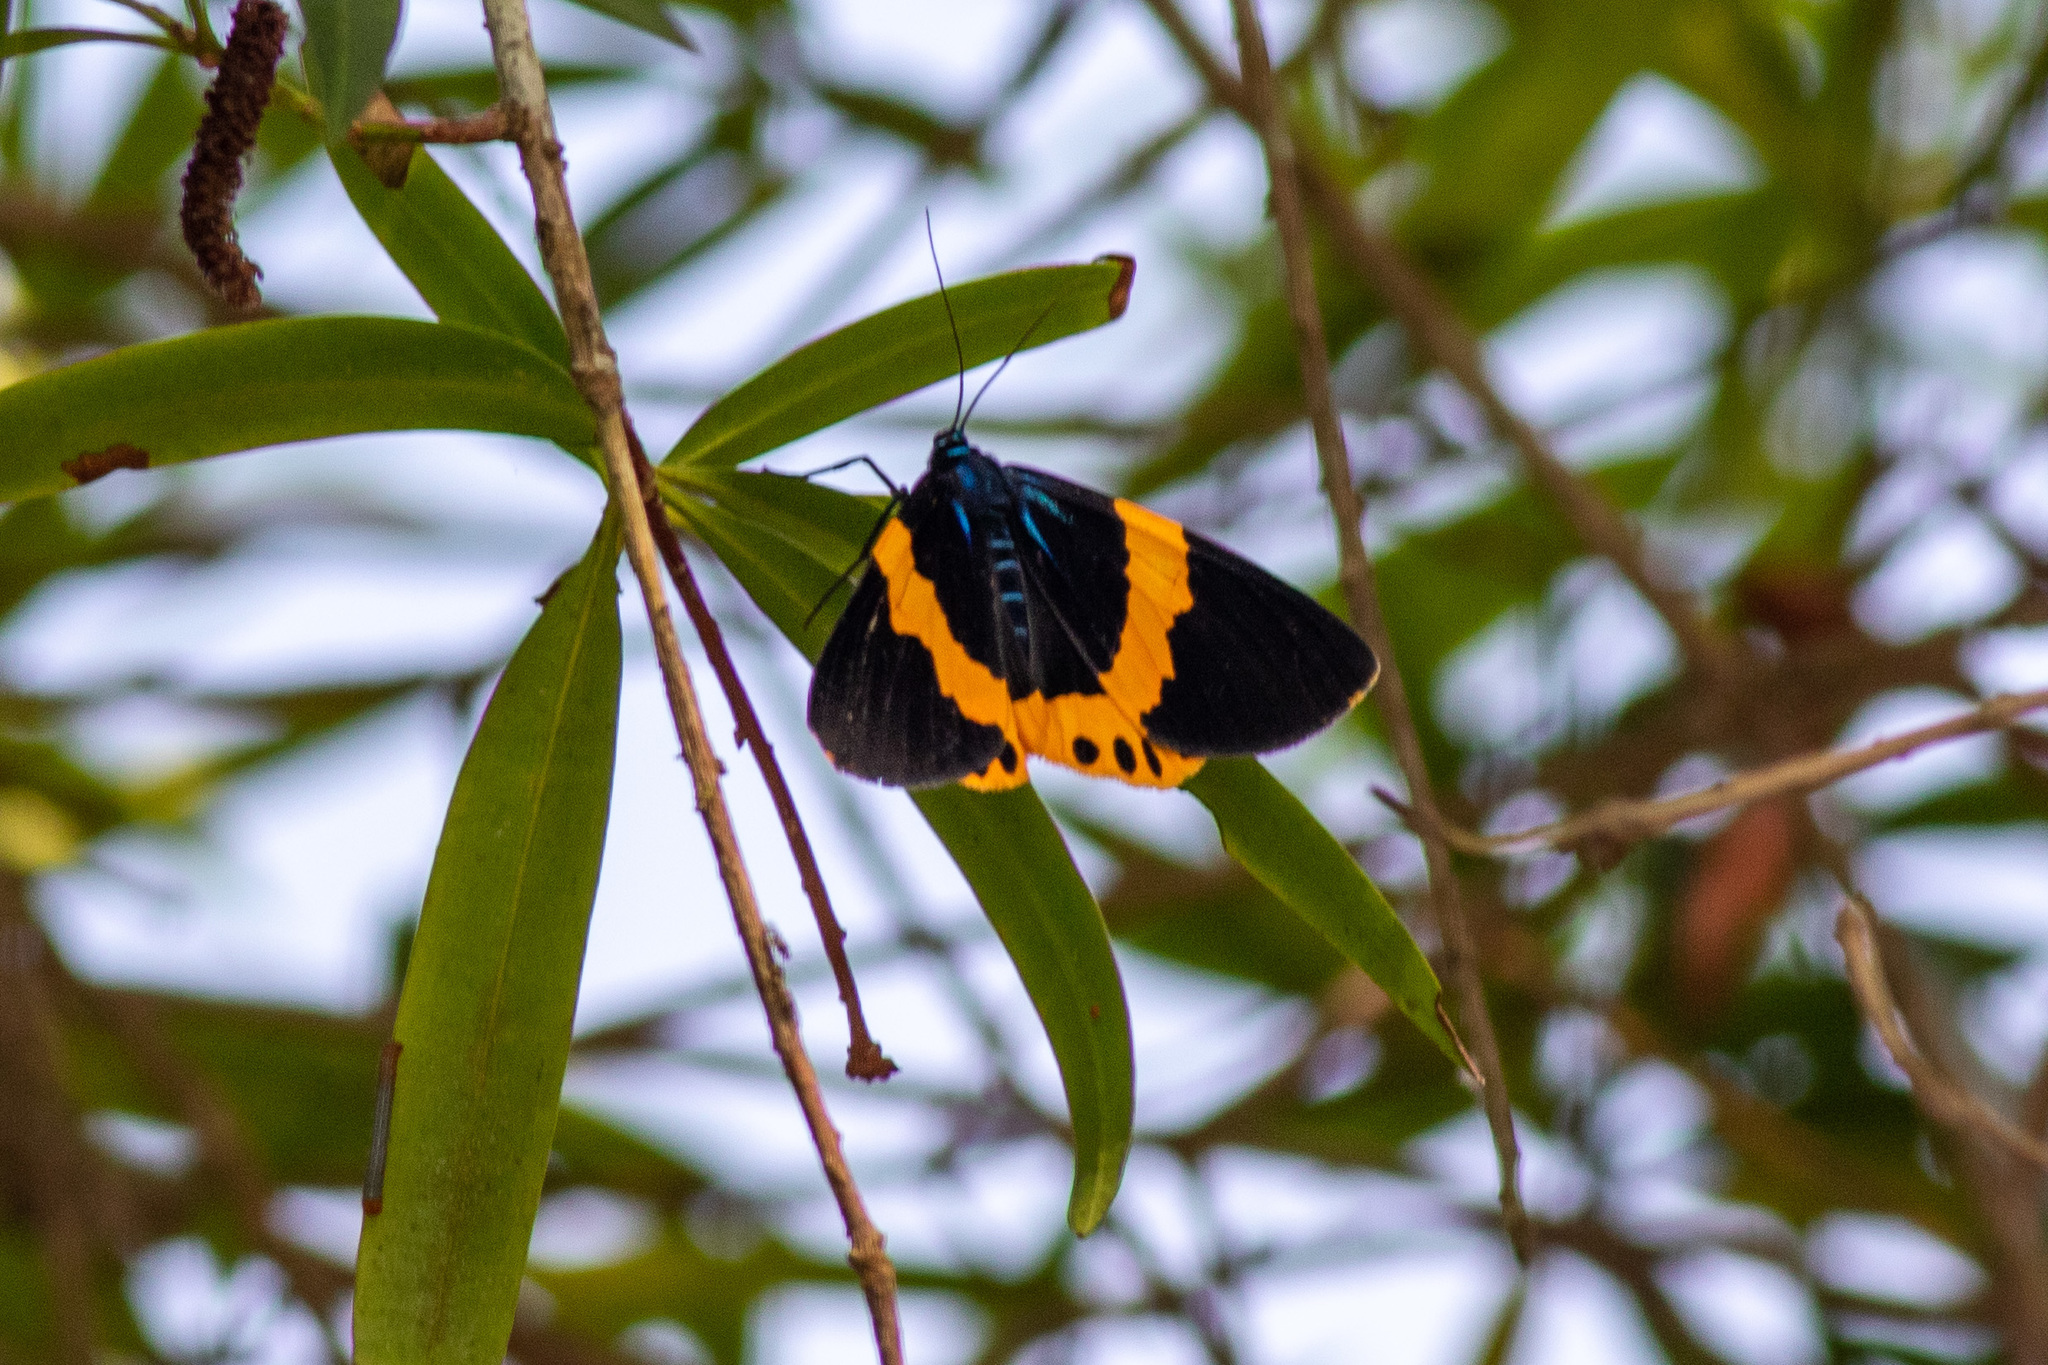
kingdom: Animalia
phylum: Arthropoda
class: Insecta
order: Lepidoptera
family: Geometridae
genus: Milionia
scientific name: Milionia basalis
